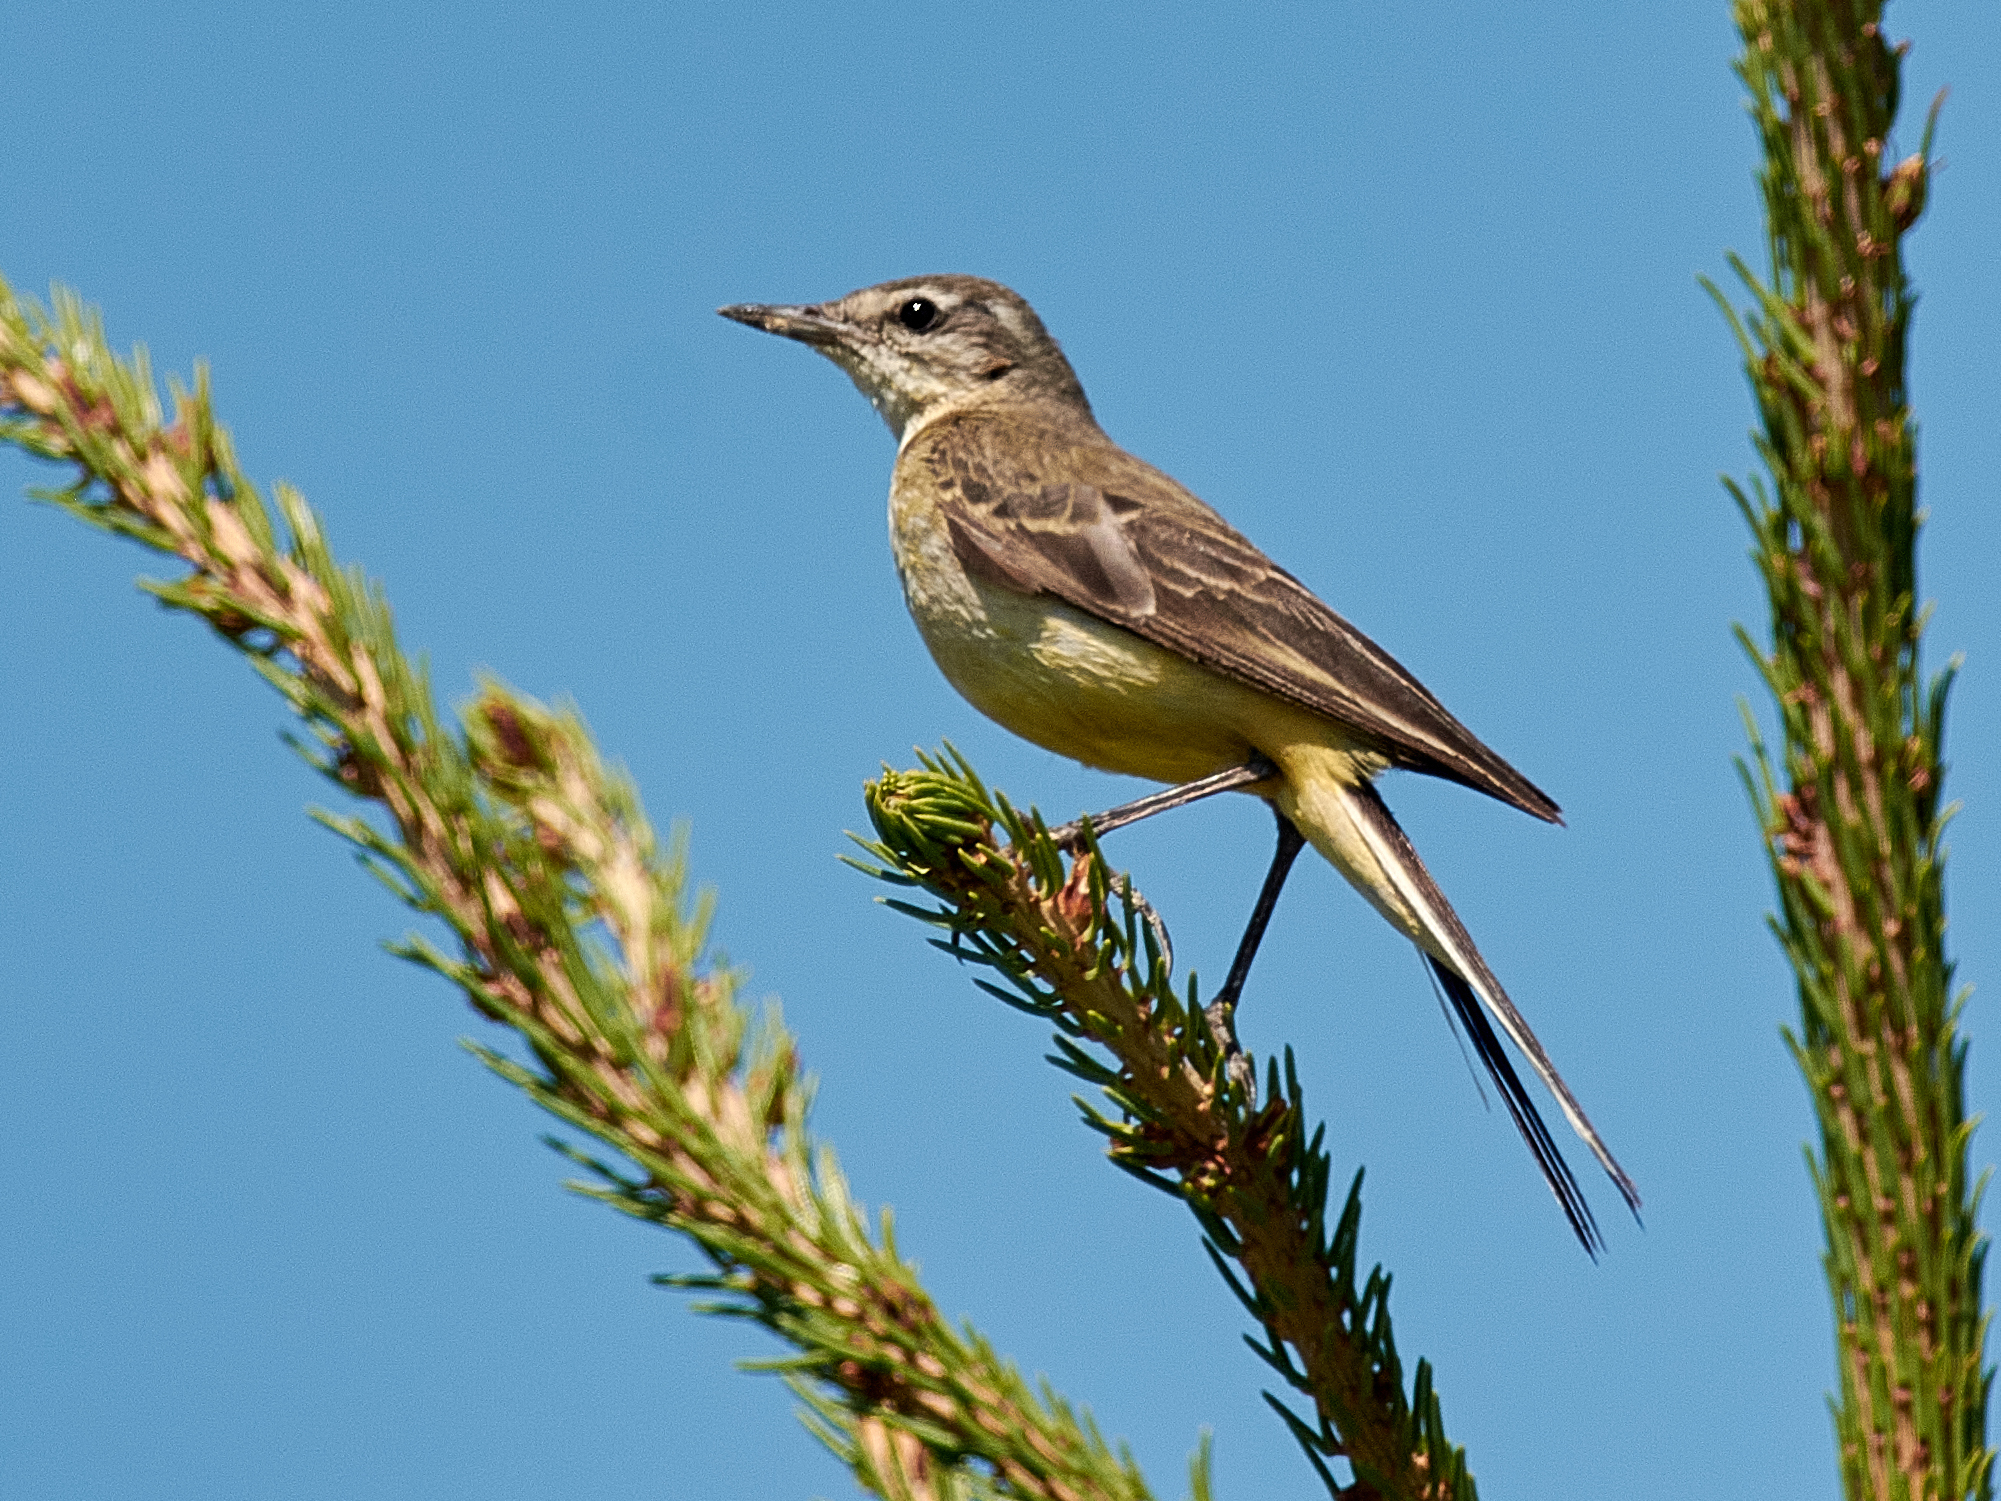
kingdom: Animalia
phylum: Chordata
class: Aves
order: Passeriformes
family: Motacillidae
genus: Motacilla
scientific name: Motacilla flava
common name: Western yellow wagtail
